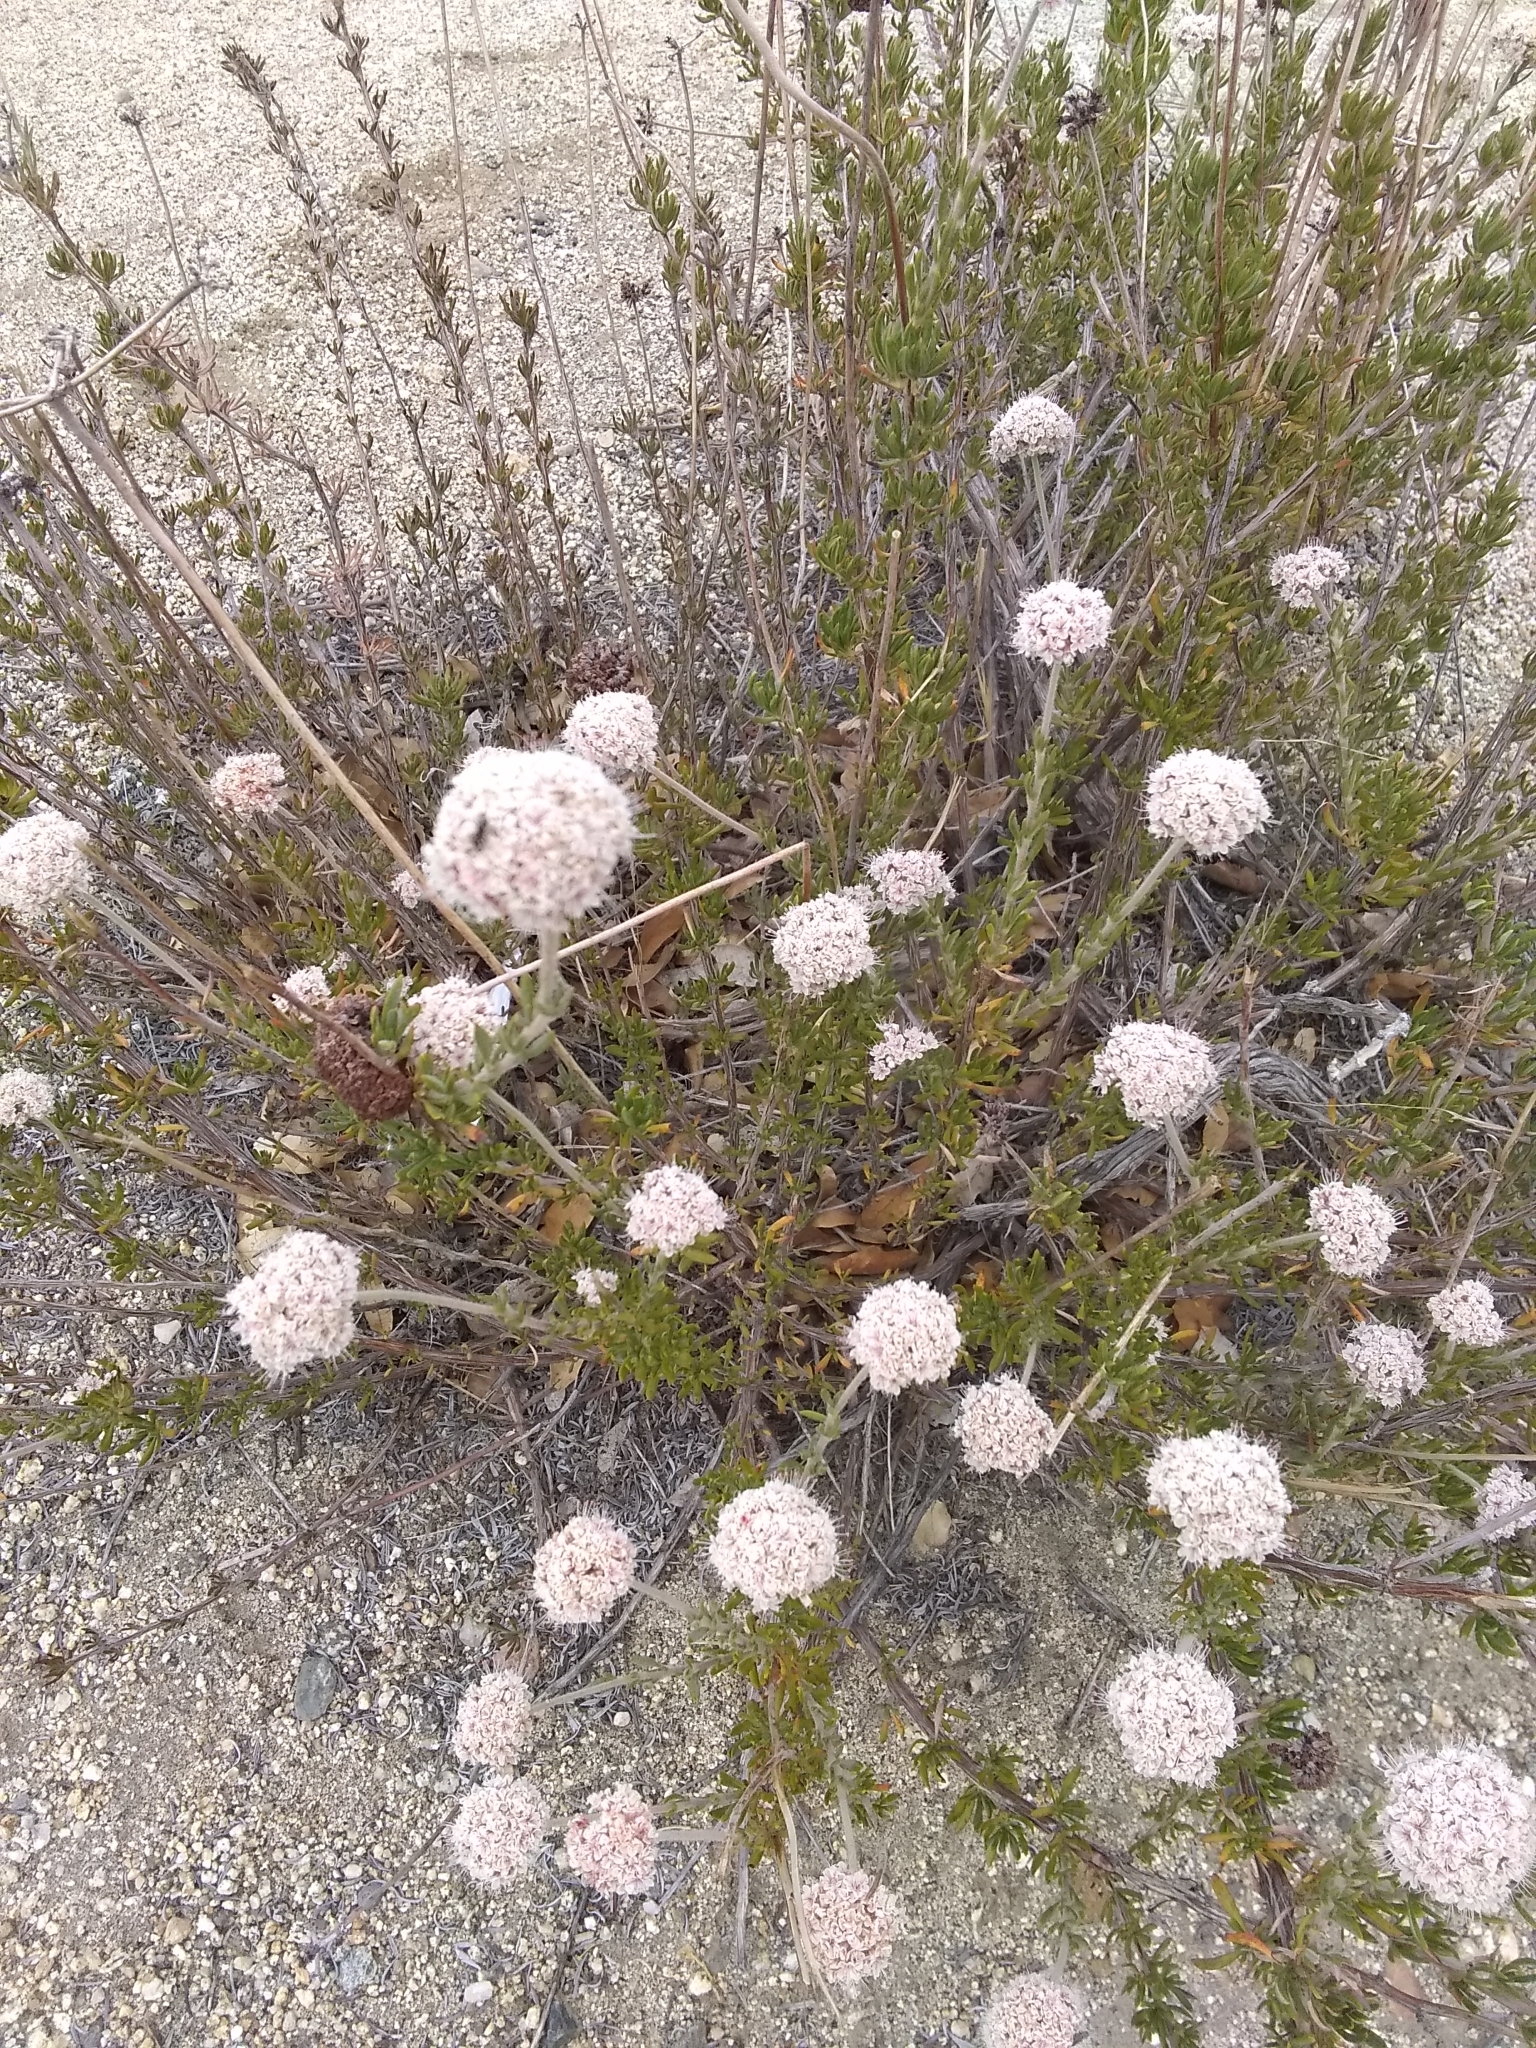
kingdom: Plantae
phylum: Tracheophyta
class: Magnoliopsida
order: Caryophyllales
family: Polygonaceae
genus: Eriogonum
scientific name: Eriogonum fasciculatum
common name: California wild buckwheat
